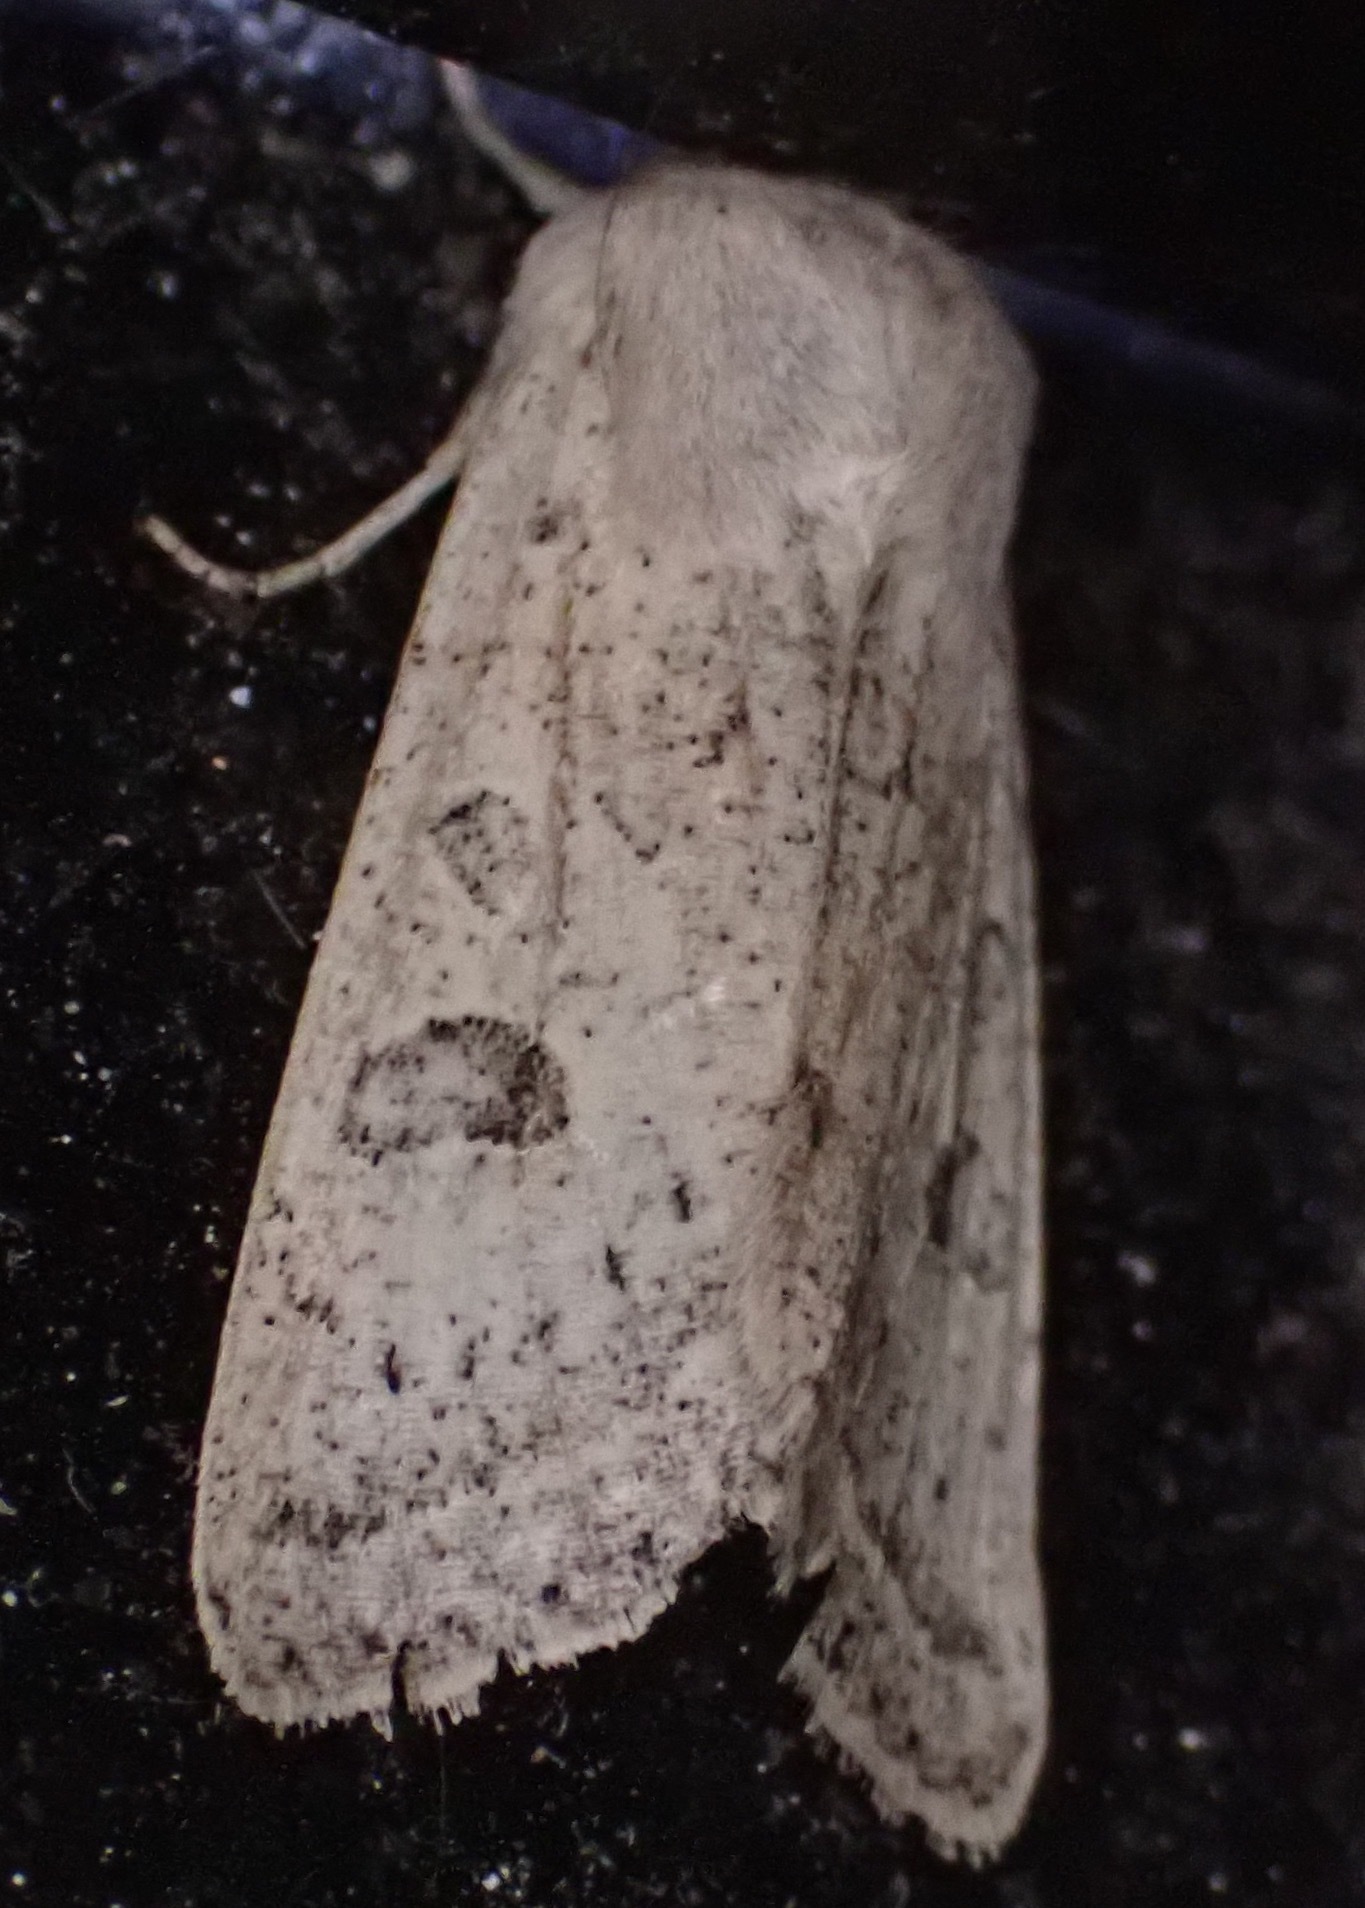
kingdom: Animalia
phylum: Arthropoda
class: Insecta
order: Lepidoptera
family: Noctuidae
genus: Orthosia
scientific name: Orthosia gracilis
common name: Powdered quaker
